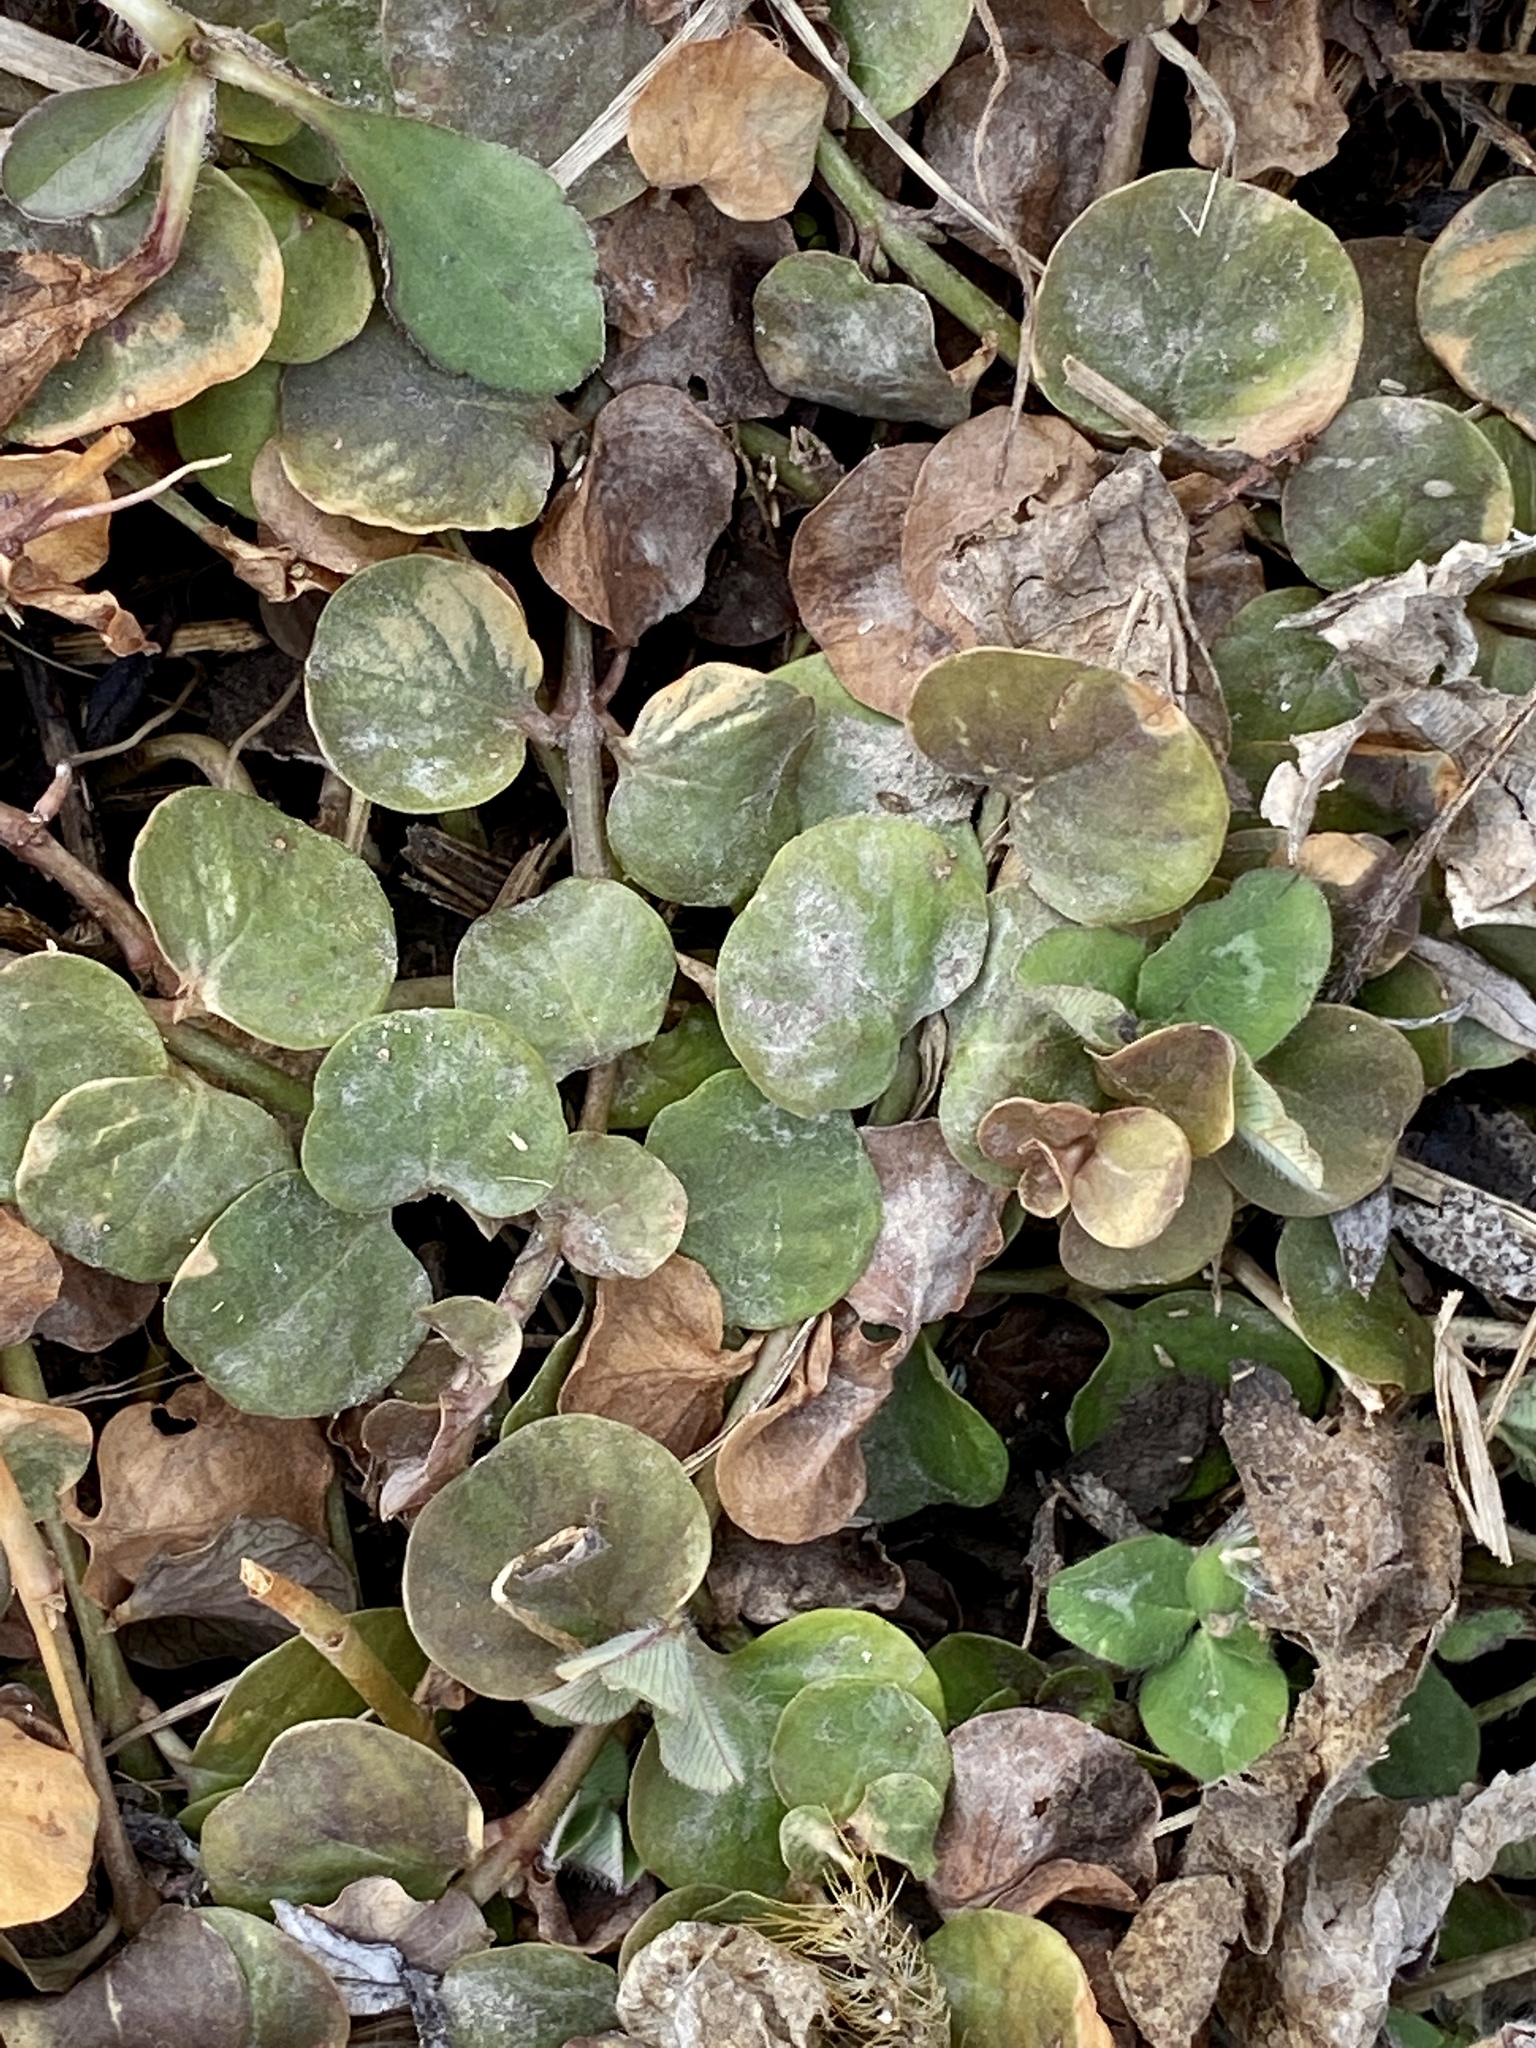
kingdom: Plantae
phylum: Tracheophyta
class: Magnoliopsida
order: Ericales
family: Primulaceae
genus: Lysimachia
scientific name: Lysimachia nummularia
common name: Moneywort
